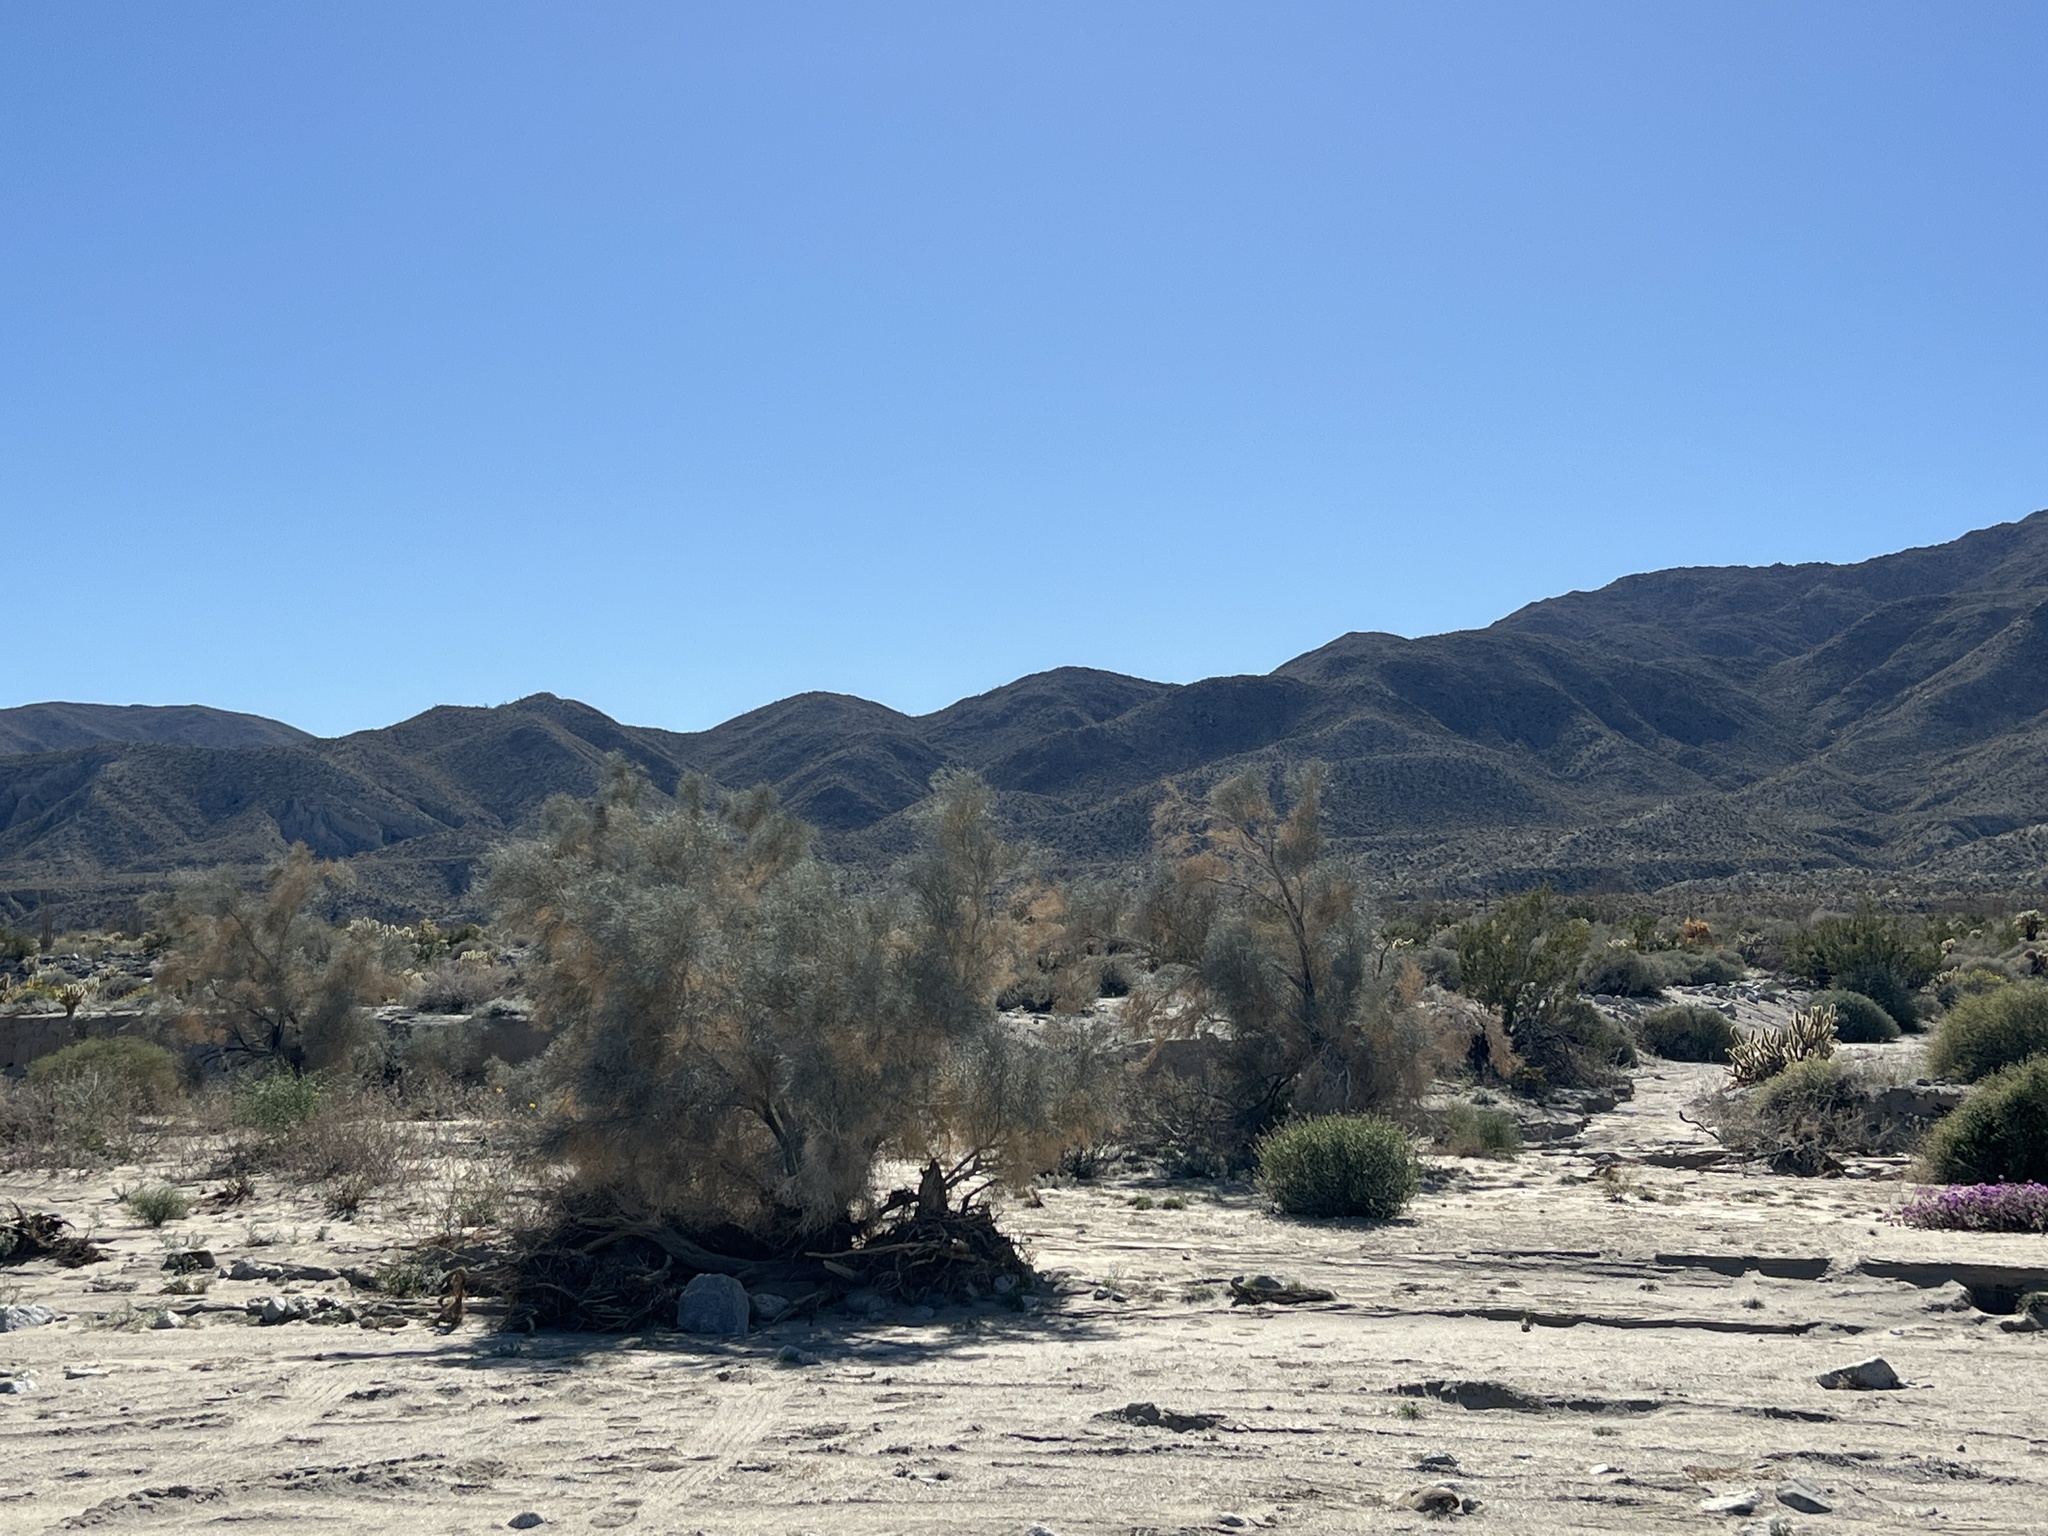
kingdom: Plantae
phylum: Tracheophyta
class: Magnoliopsida
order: Fabales
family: Fabaceae
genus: Psorothamnus
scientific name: Psorothamnus spinosus
